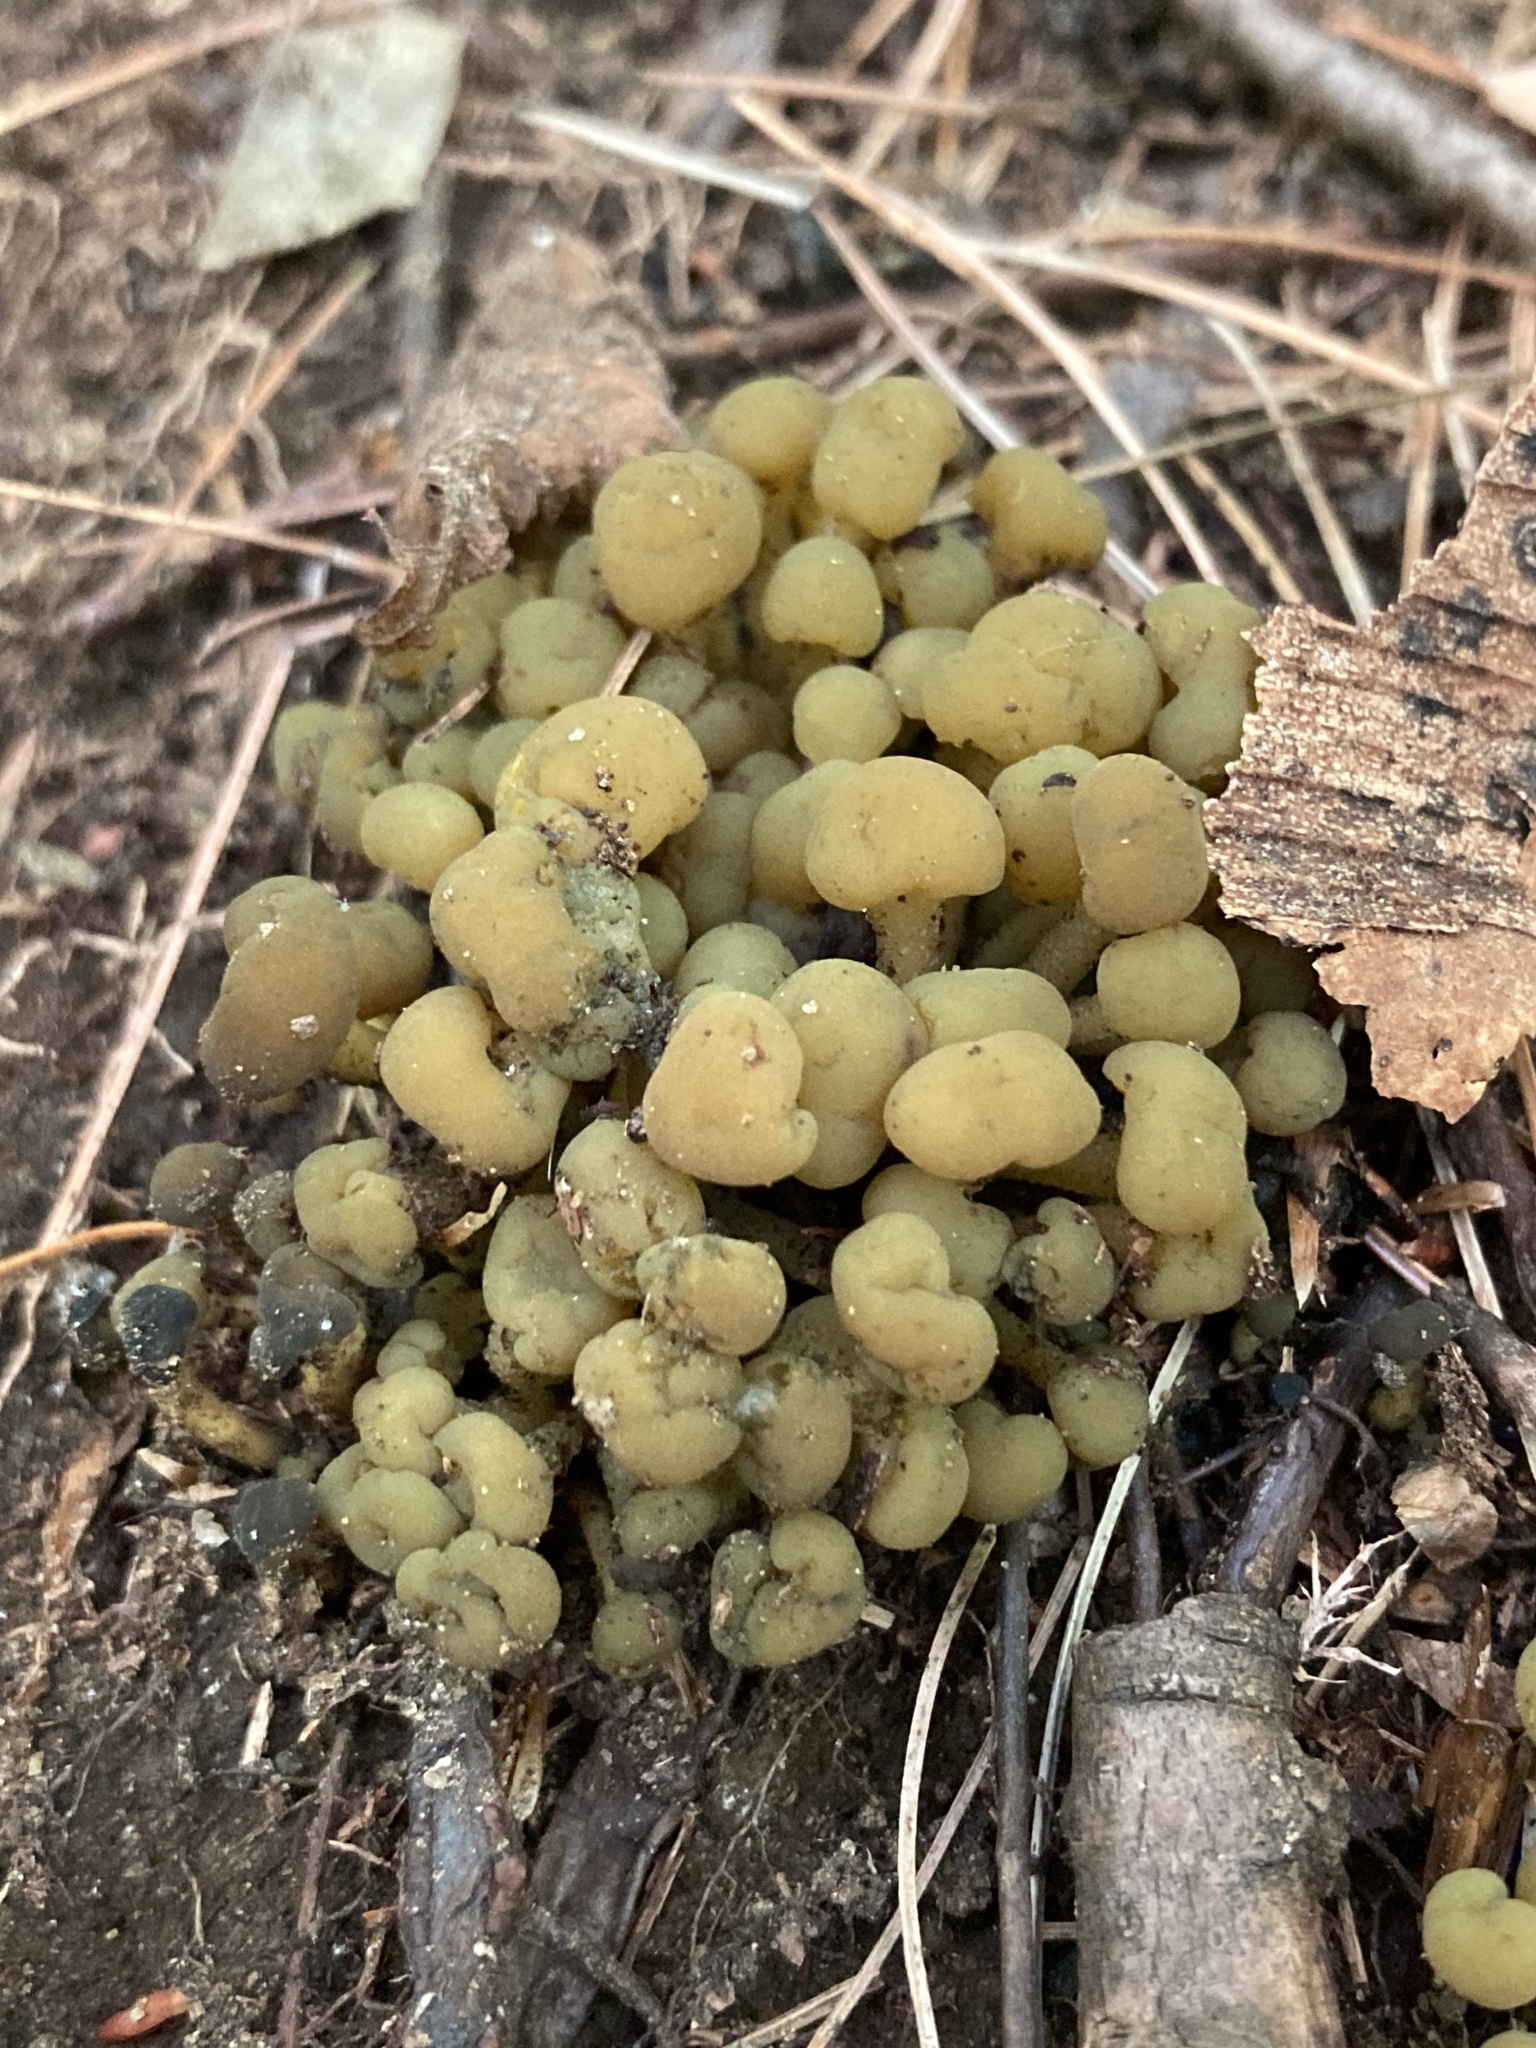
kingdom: Fungi
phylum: Ascomycota
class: Leotiomycetes
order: Leotiales
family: Leotiaceae
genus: Leotia
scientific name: Leotia lubrica
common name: Jellybaby
